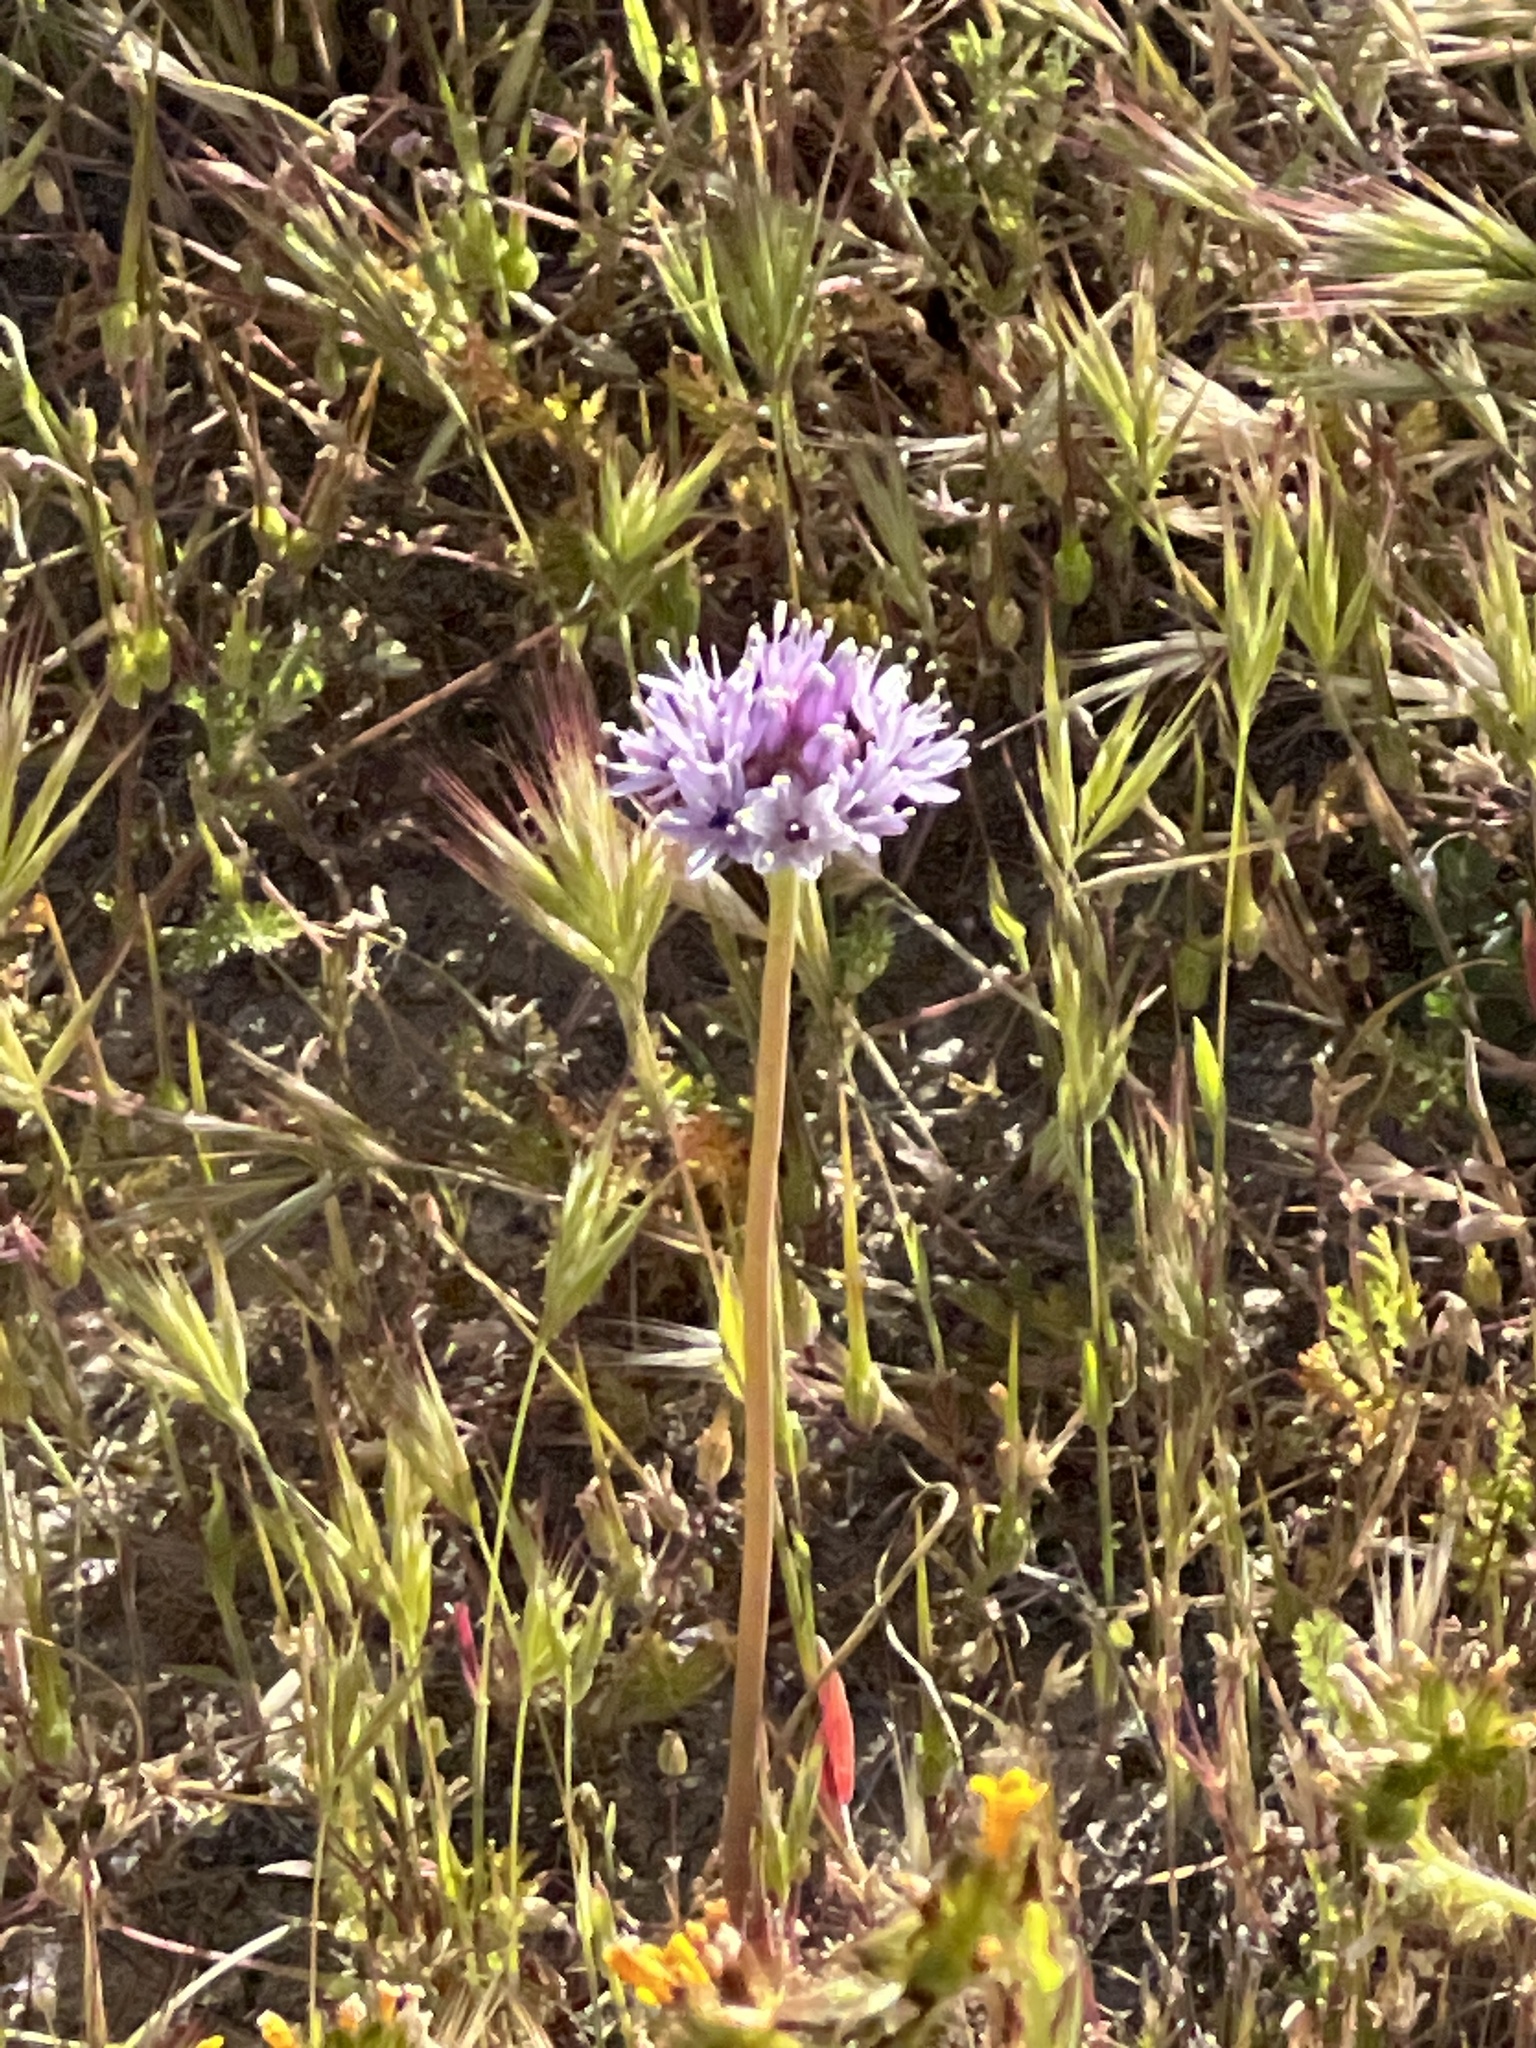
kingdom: Plantae
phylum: Tracheophyta
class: Liliopsida
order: Asparagales
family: Amaryllidaceae
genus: Allium
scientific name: Allium howellii
